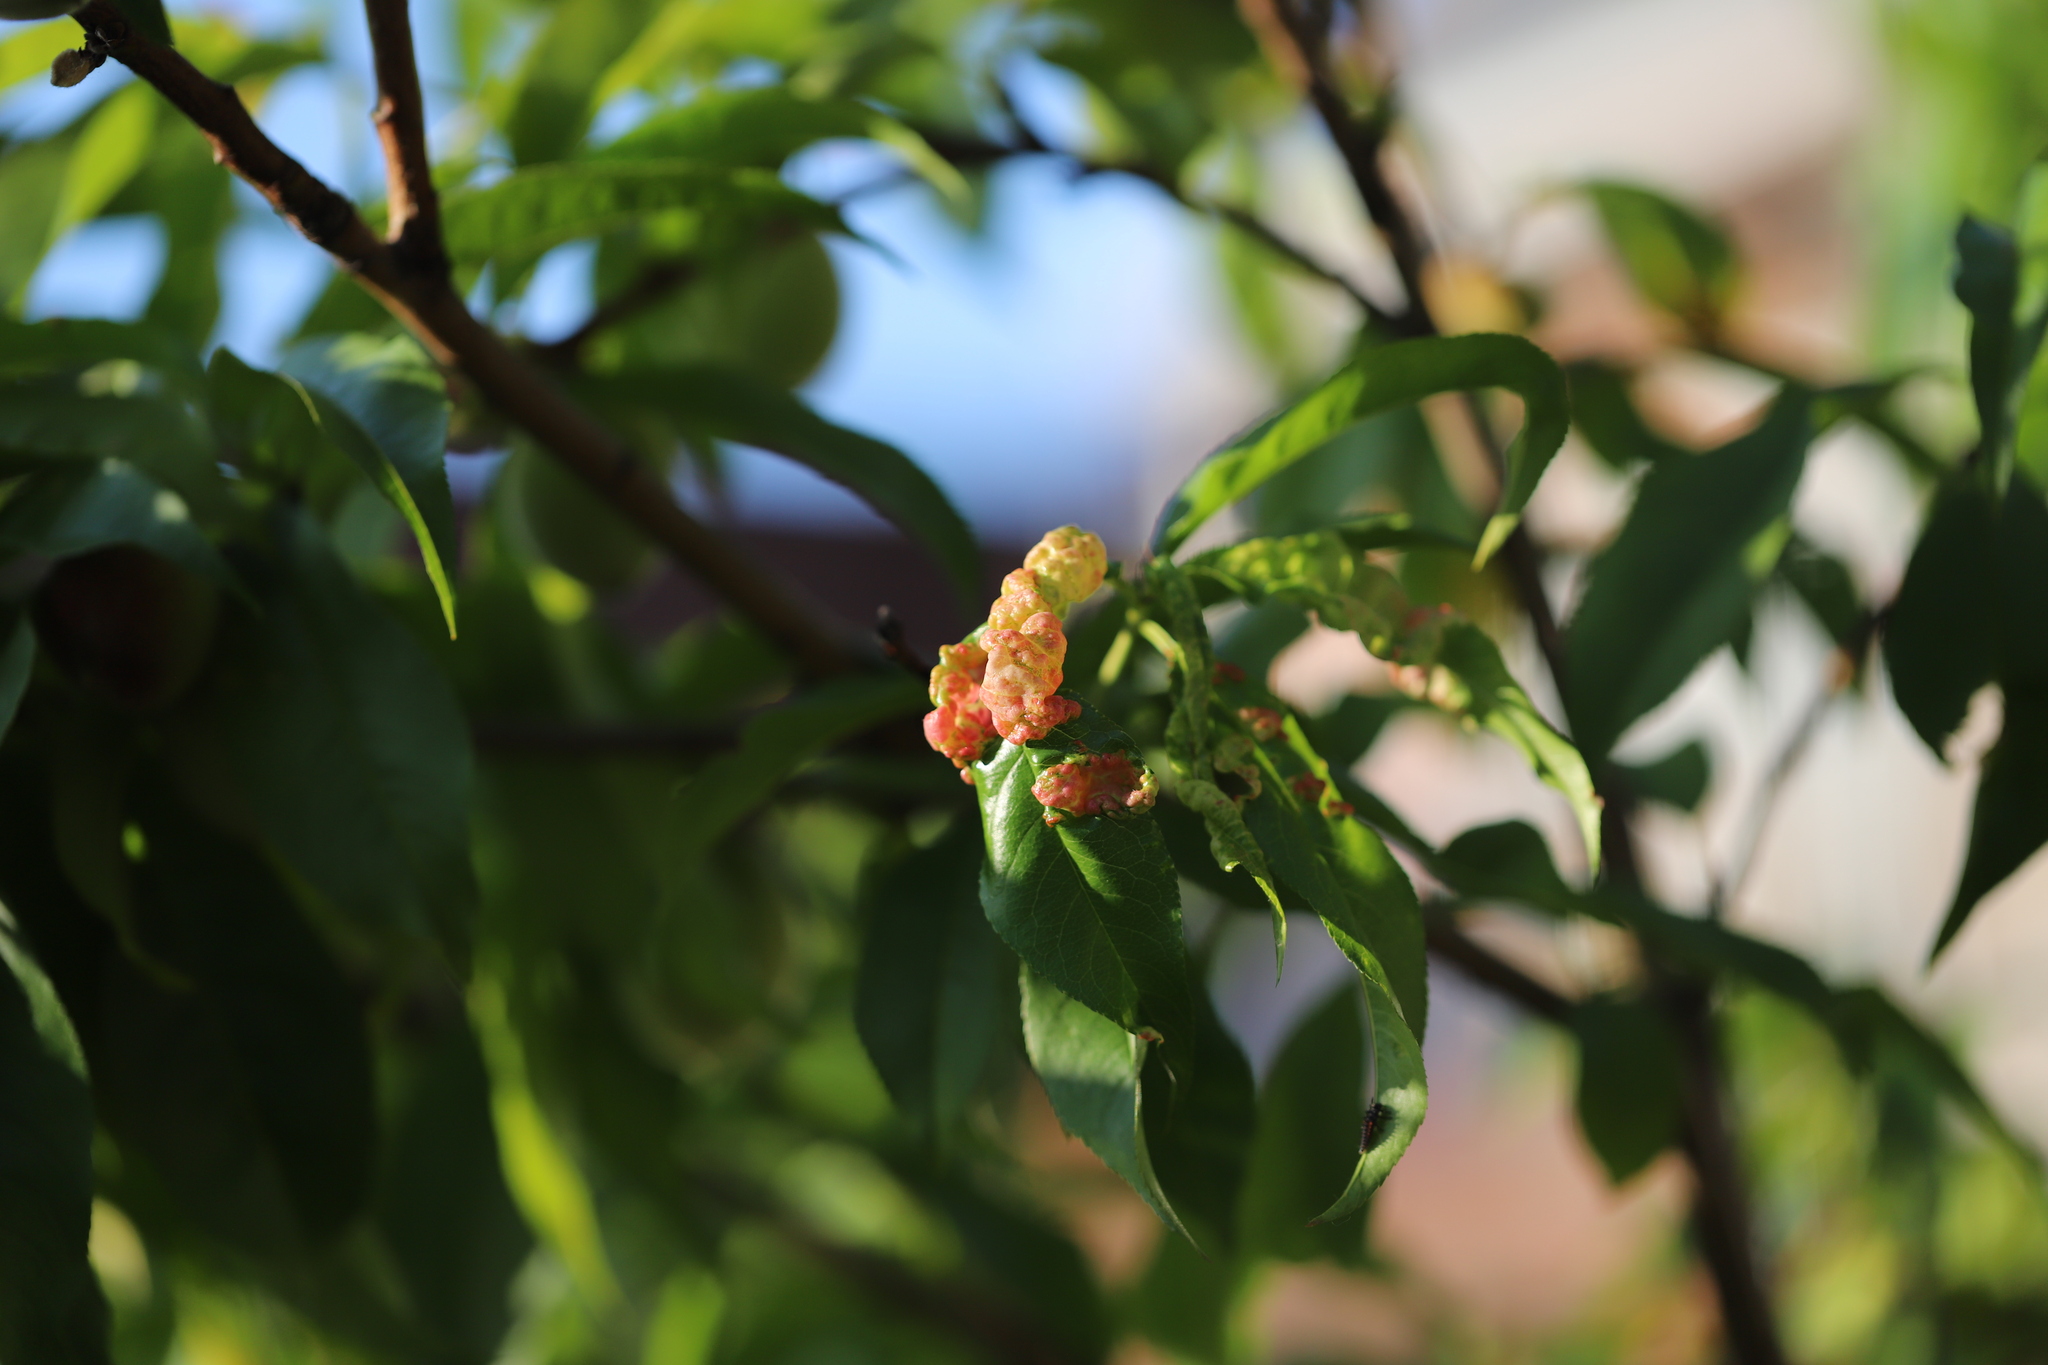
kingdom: Fungi
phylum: Ascomycota
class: Taphrinomycetes
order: Taphrinales
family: Taphrinaceae
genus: Taphrina
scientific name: Taphrina deformans
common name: Peach leaf curl
